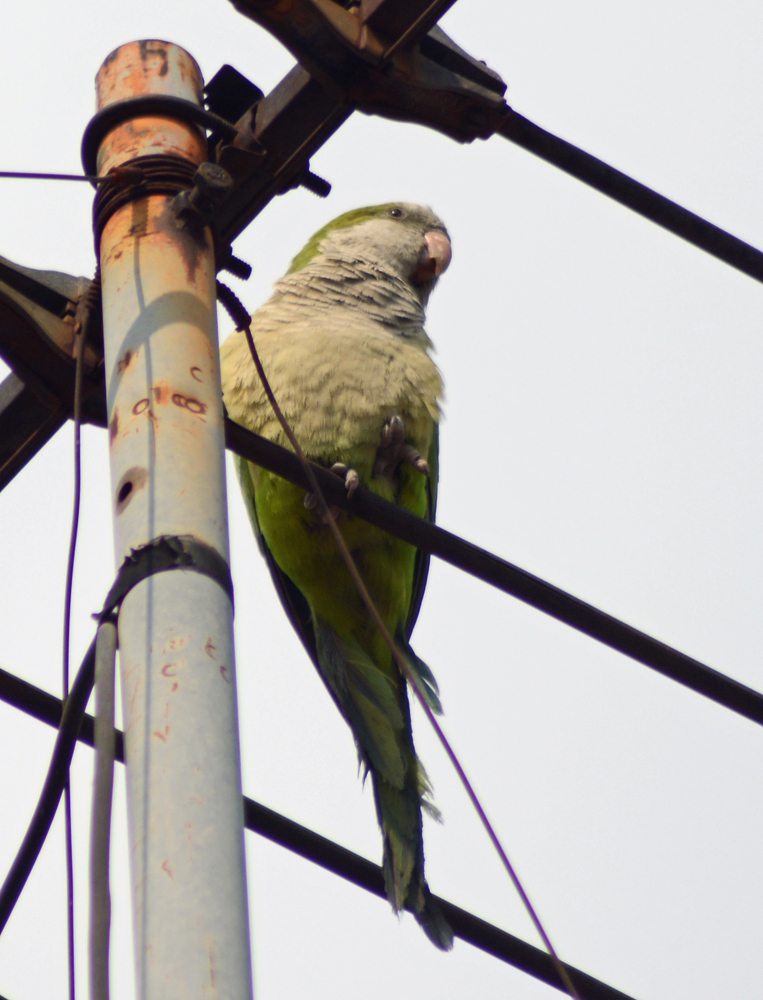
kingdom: Animalia
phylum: Chordata
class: Aves
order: Psittaciformes
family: Psittacidae
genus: Myiopsitta
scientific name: Myiopsitta monachus
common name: Monk parakeet
